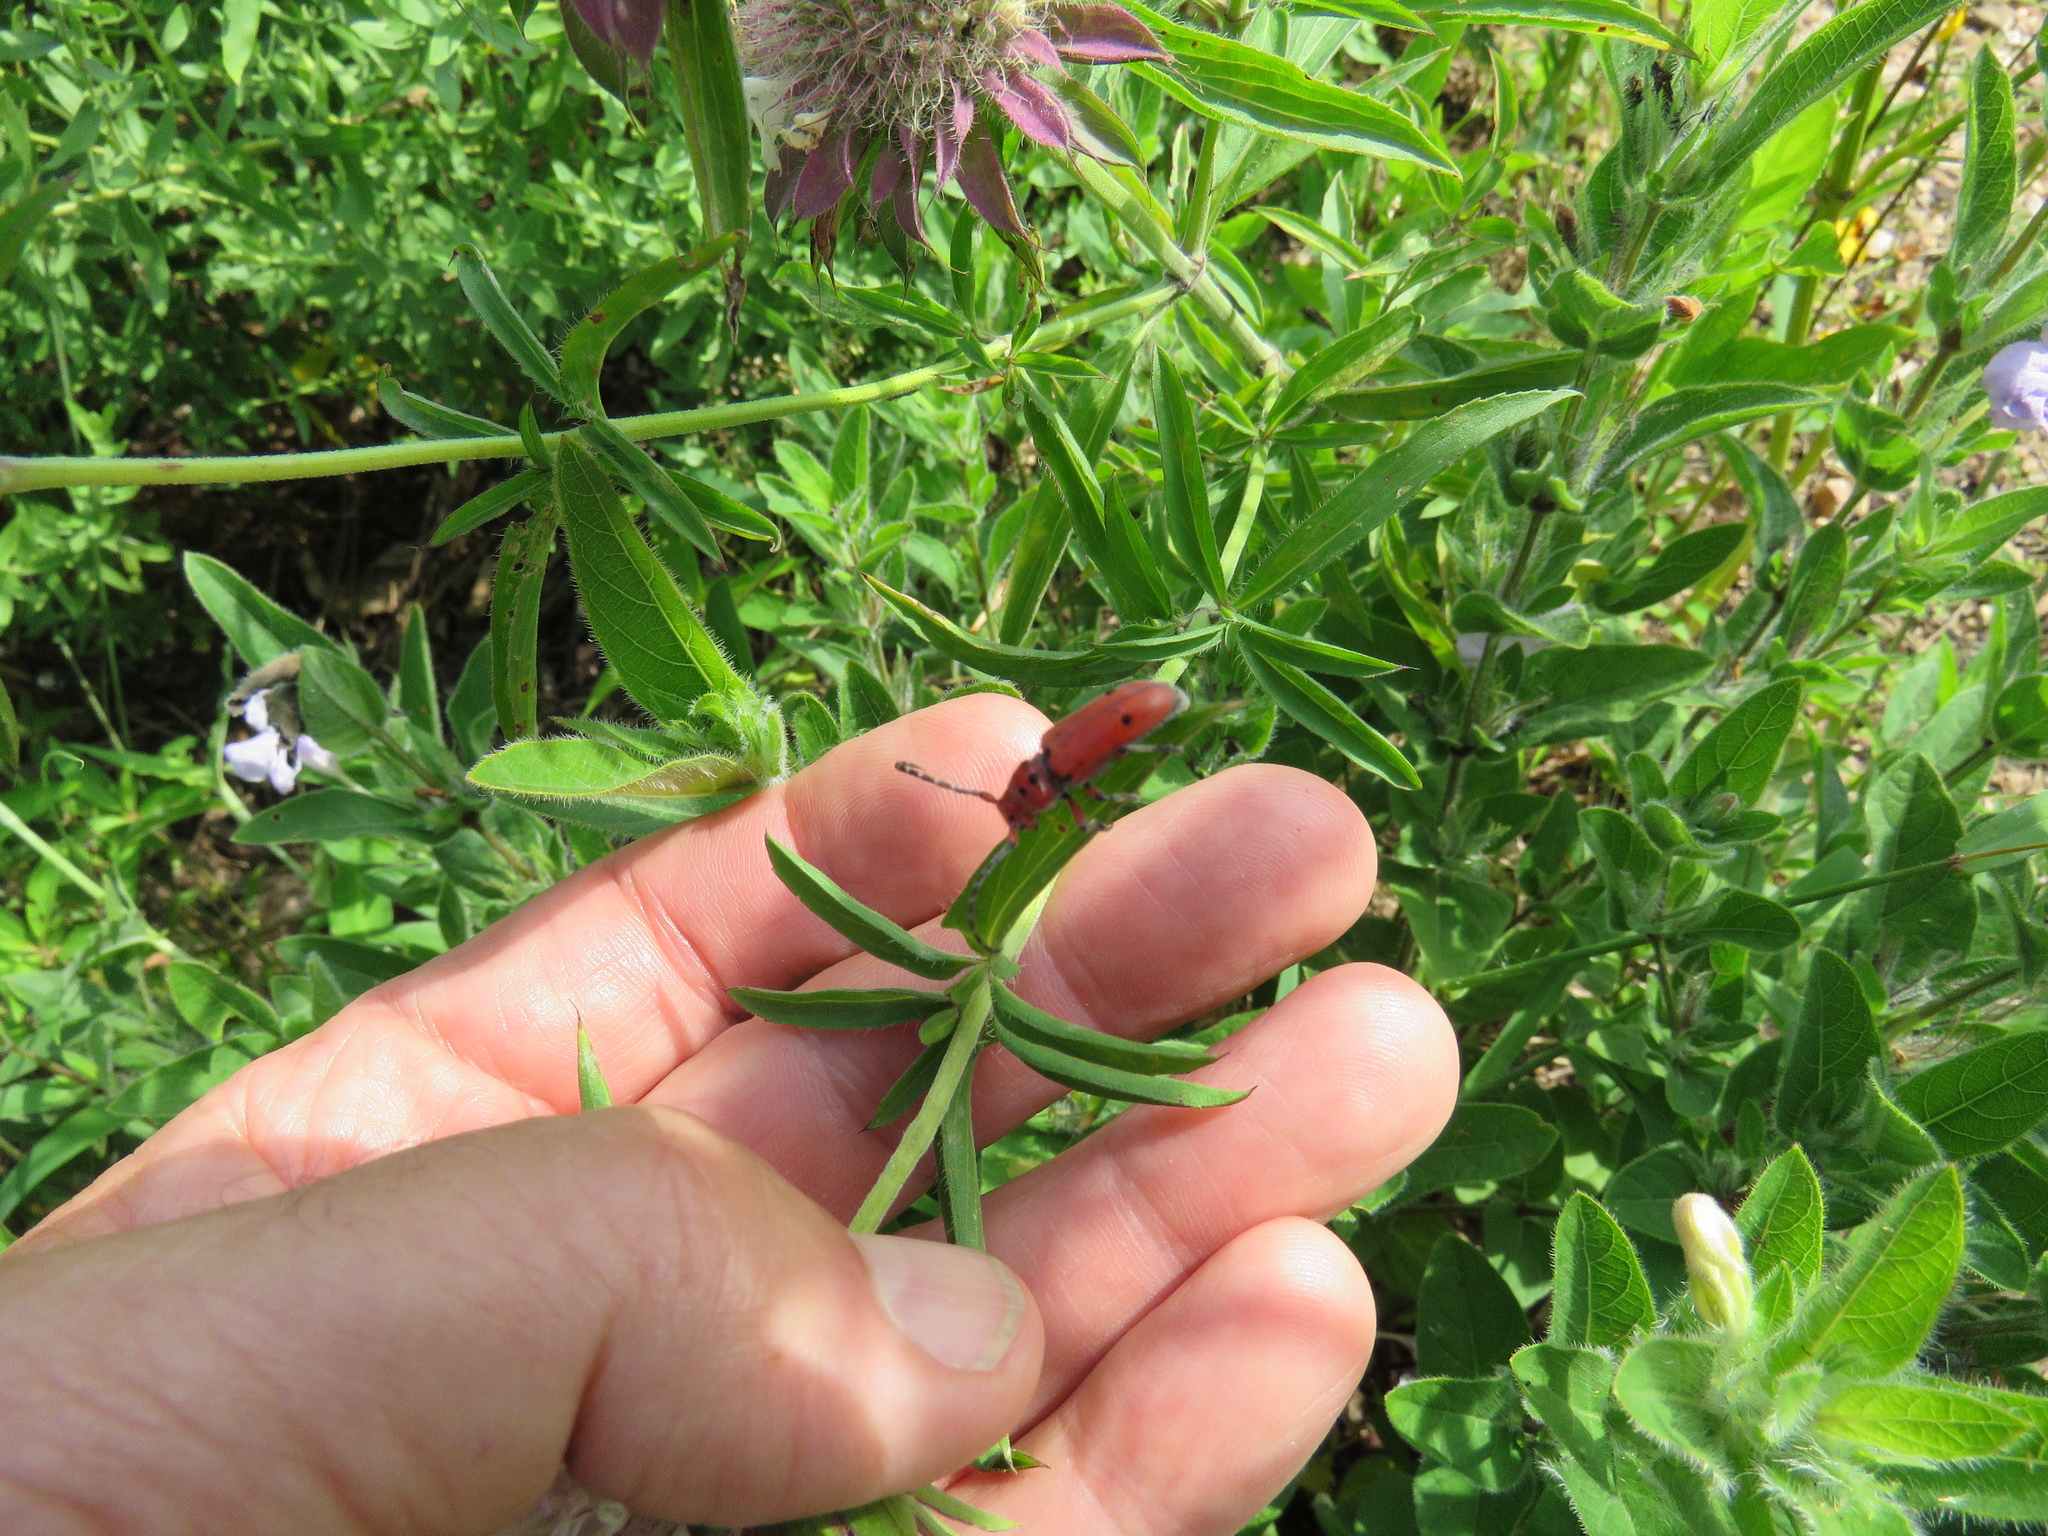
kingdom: Animalia
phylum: Arthropoda
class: Insecta
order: Coleoptera
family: Cerambycidae
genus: Tetraopes
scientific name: Tetraopes texanus
